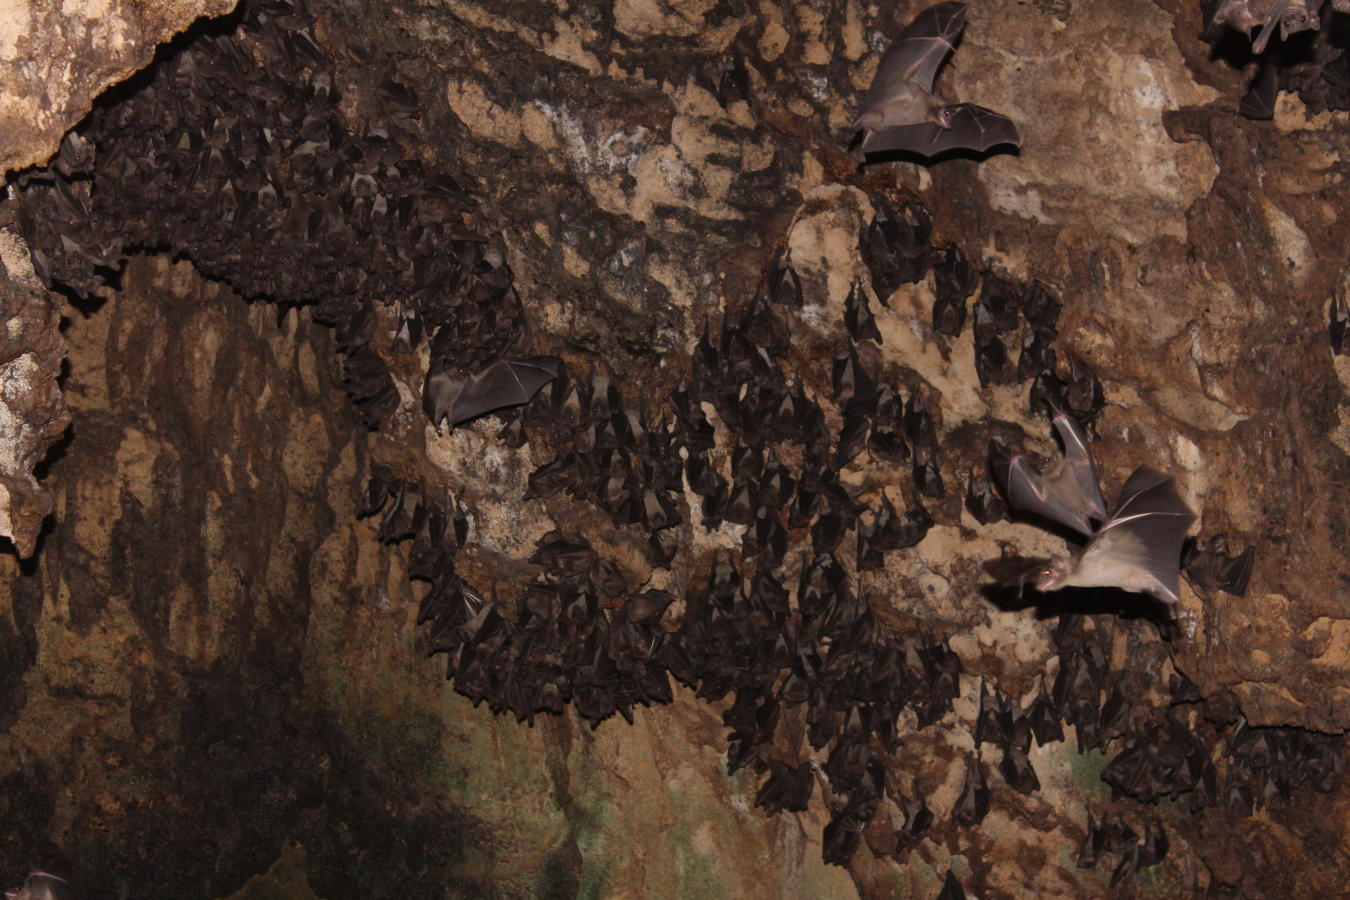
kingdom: Animalia
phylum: Chordata
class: Mammalia
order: Chiroptera
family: Pteropodidae
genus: Rousettus
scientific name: Rousettus aegyptiacus
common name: Egyptian rousette
